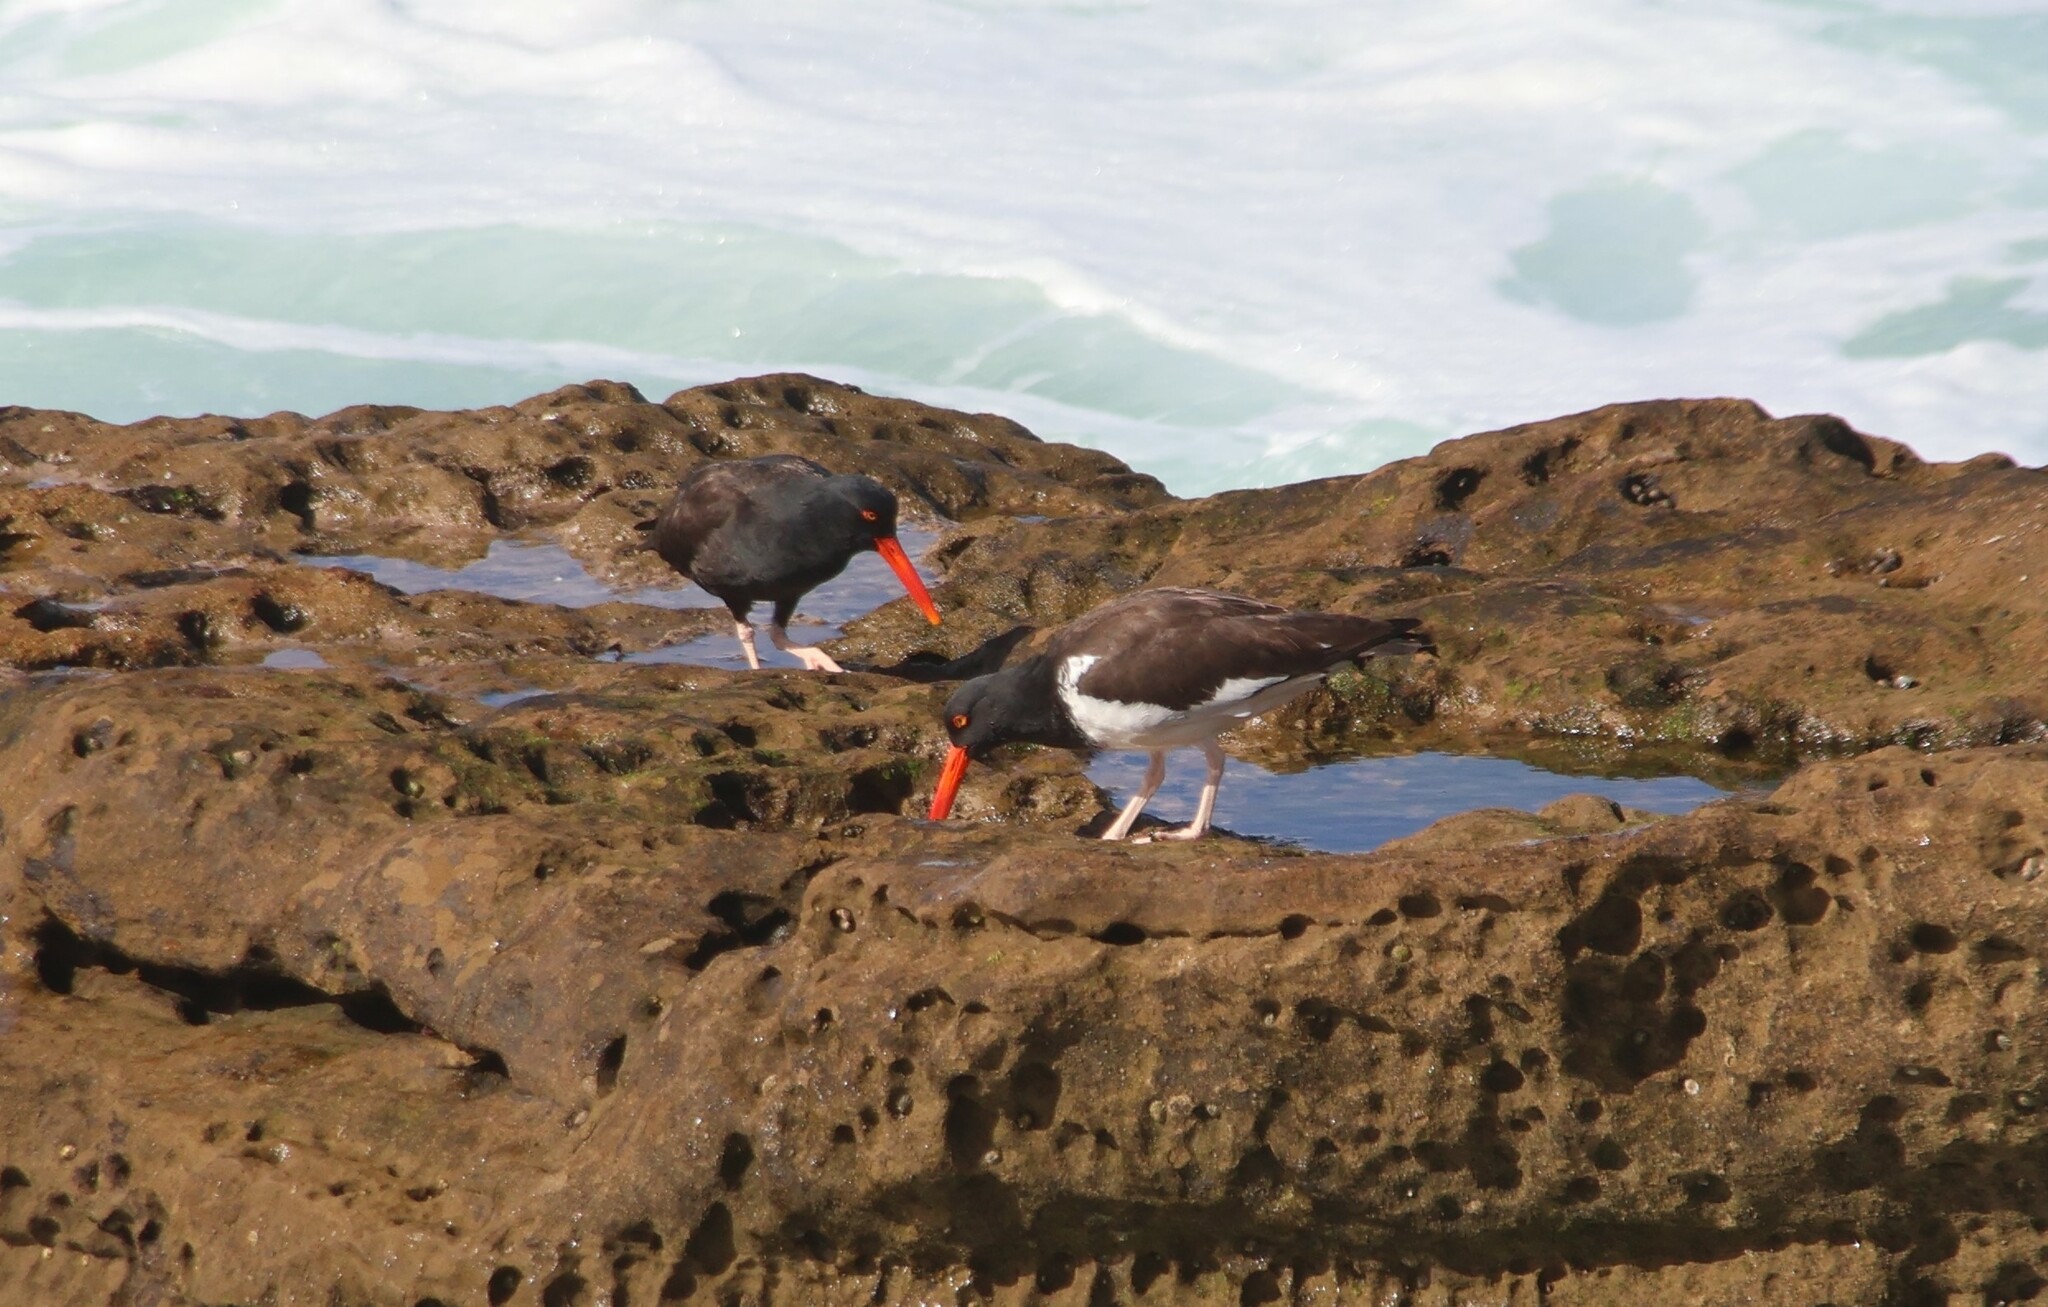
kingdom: Animalia
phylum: Chordata
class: Aves
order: Charadriiformes
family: Haematopodidae
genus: Haematopus
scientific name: Haematopus
